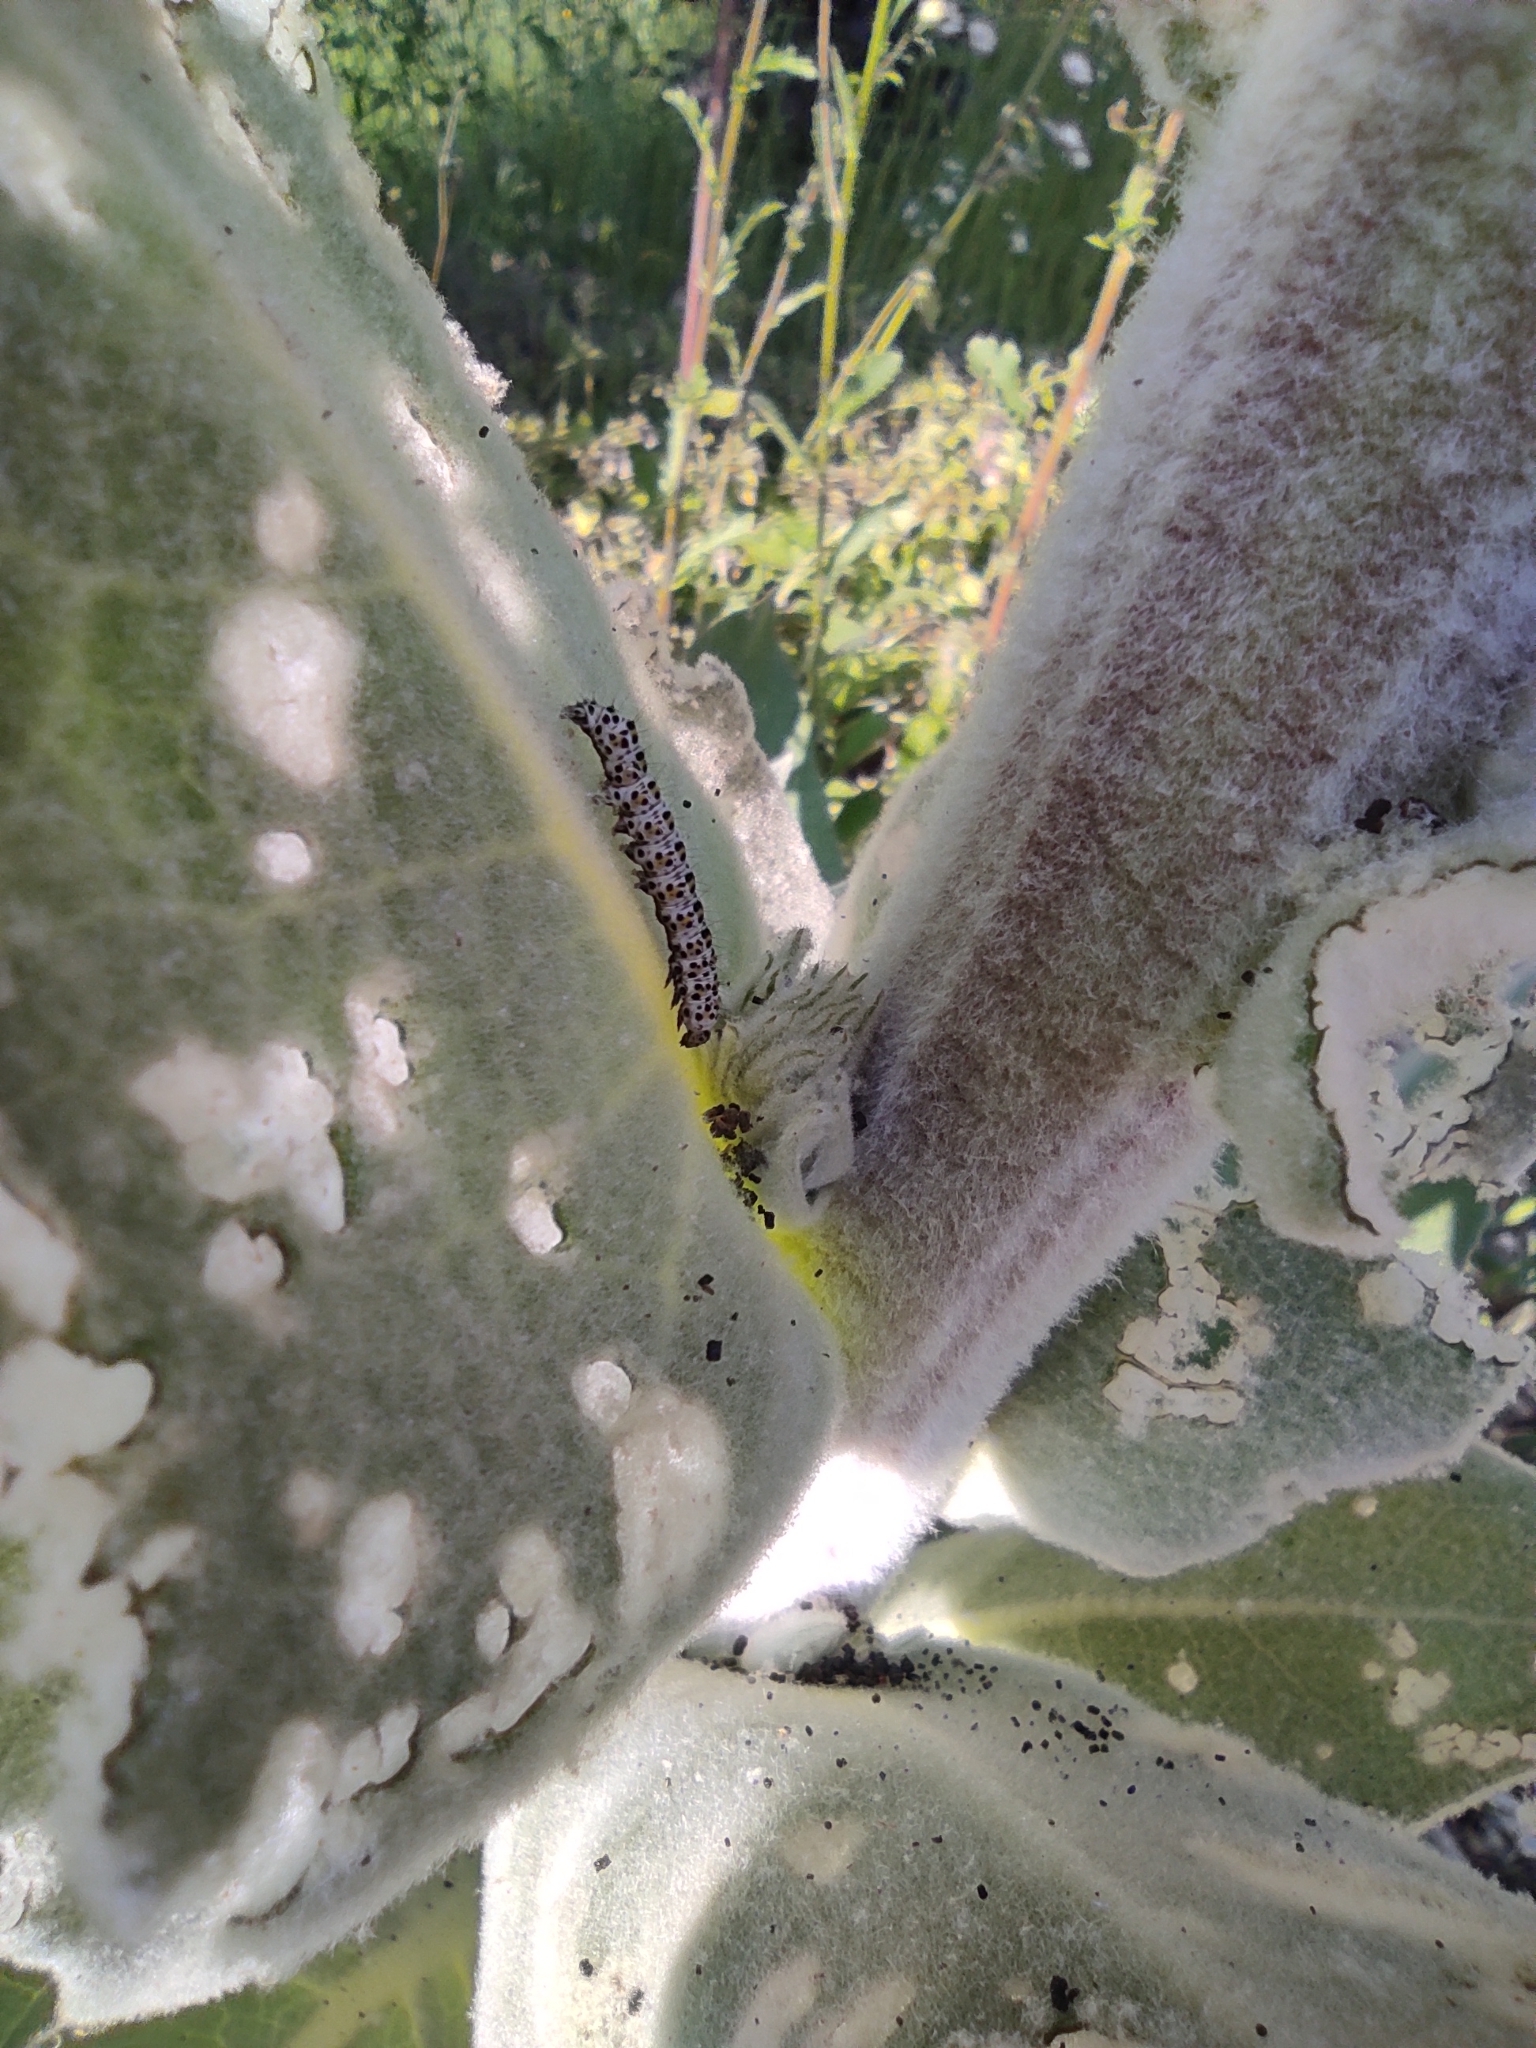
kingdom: Animalia
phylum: Arthropoda
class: Insecta
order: Lepidoptera
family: Noctuidae
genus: Cucullia
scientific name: Cucullia verbasci
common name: Mullein
